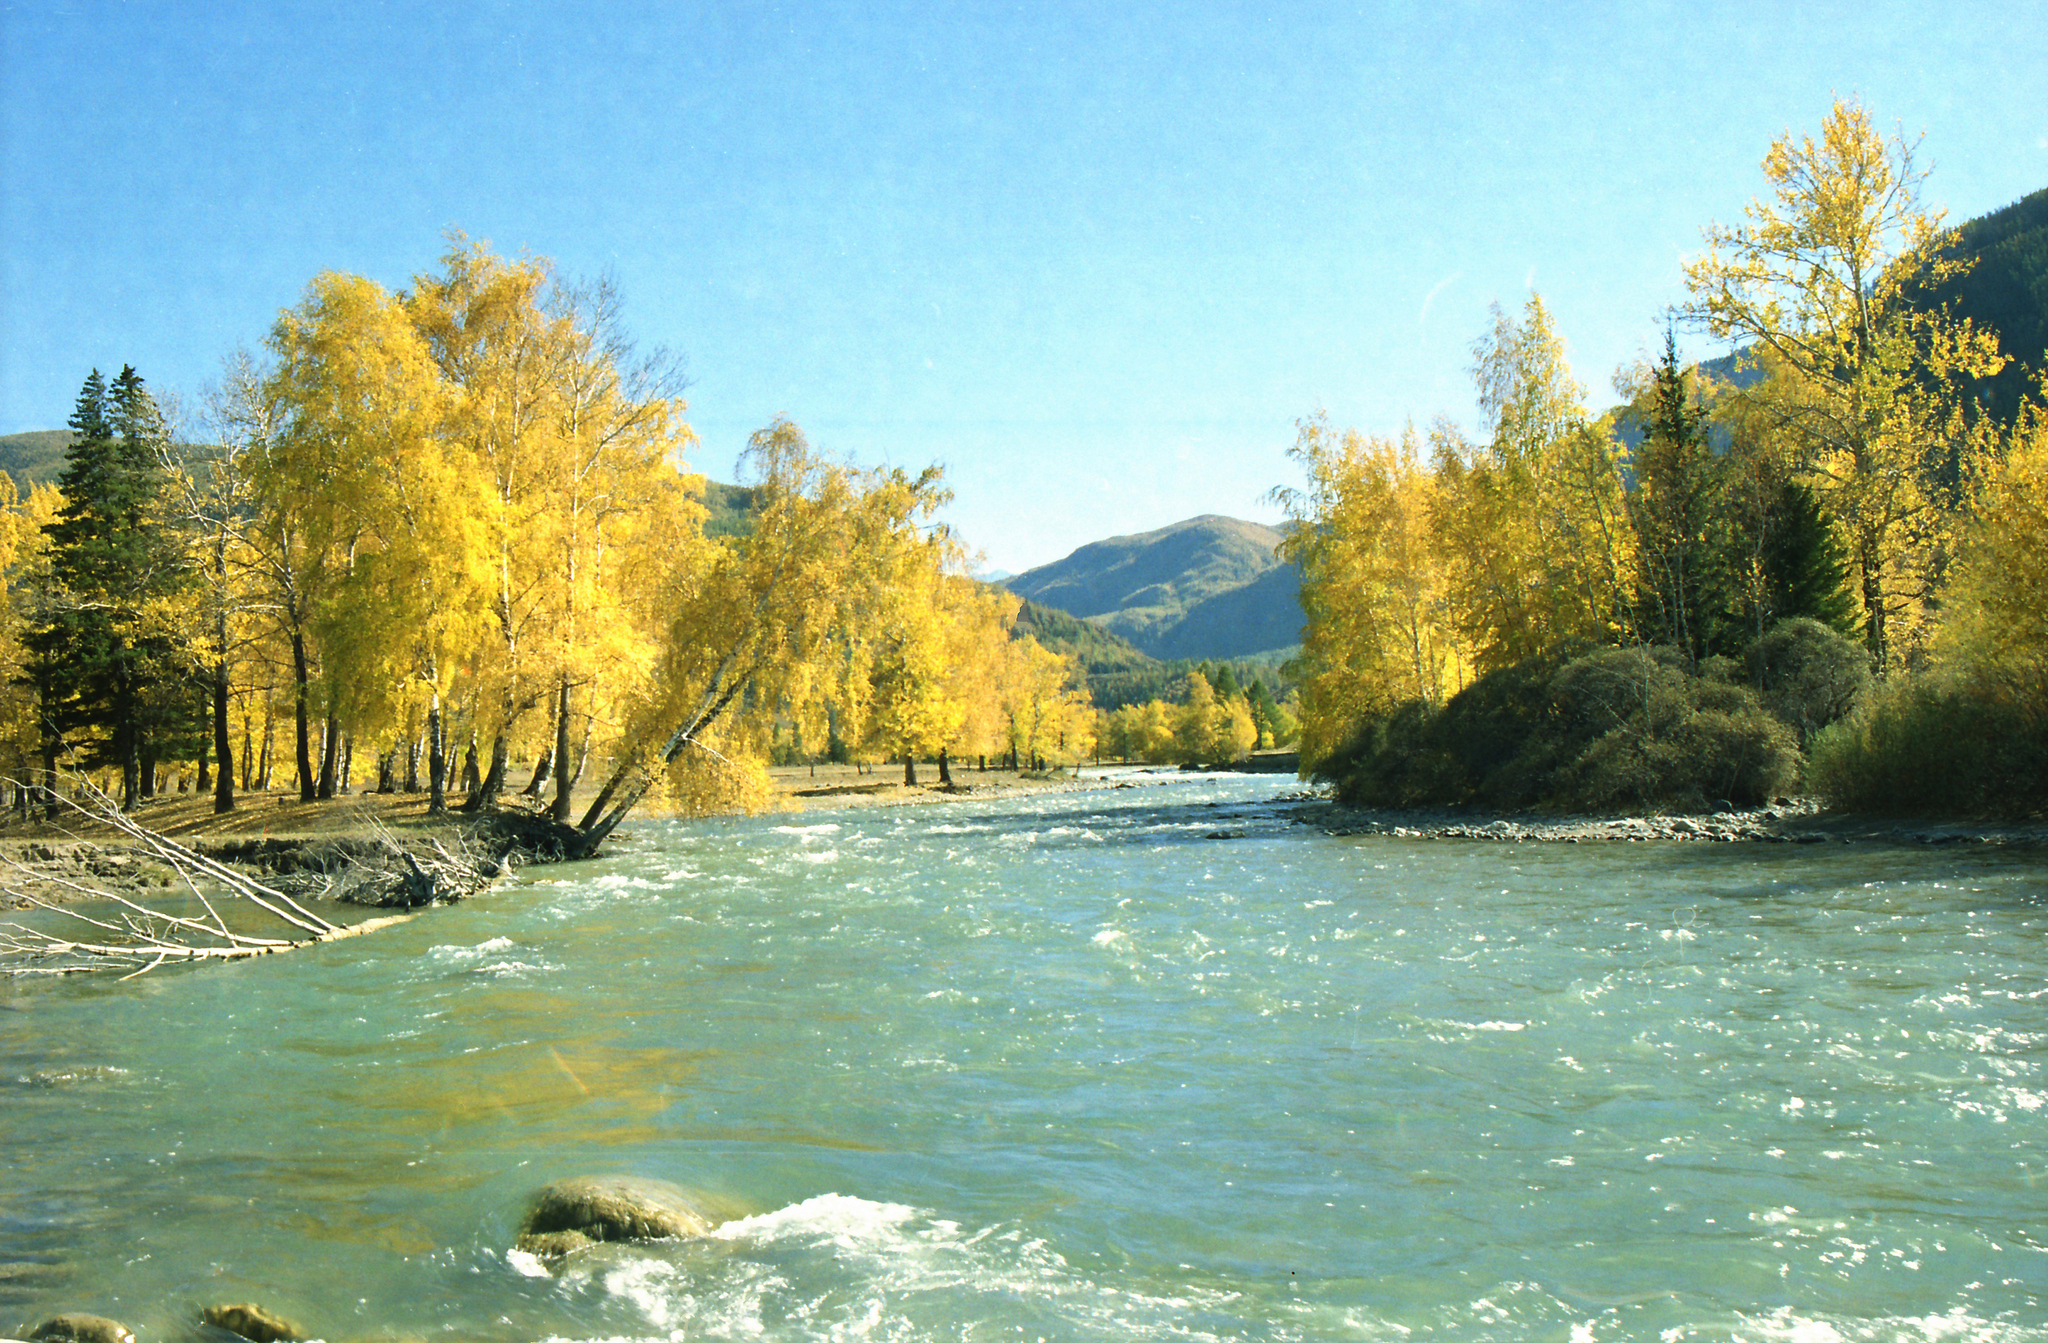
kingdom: Plantae
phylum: Tracheophyta
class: Magnoliopsida
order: Fagales
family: Betulaceae
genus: Betula
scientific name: Betula pendula
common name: Silver birch
